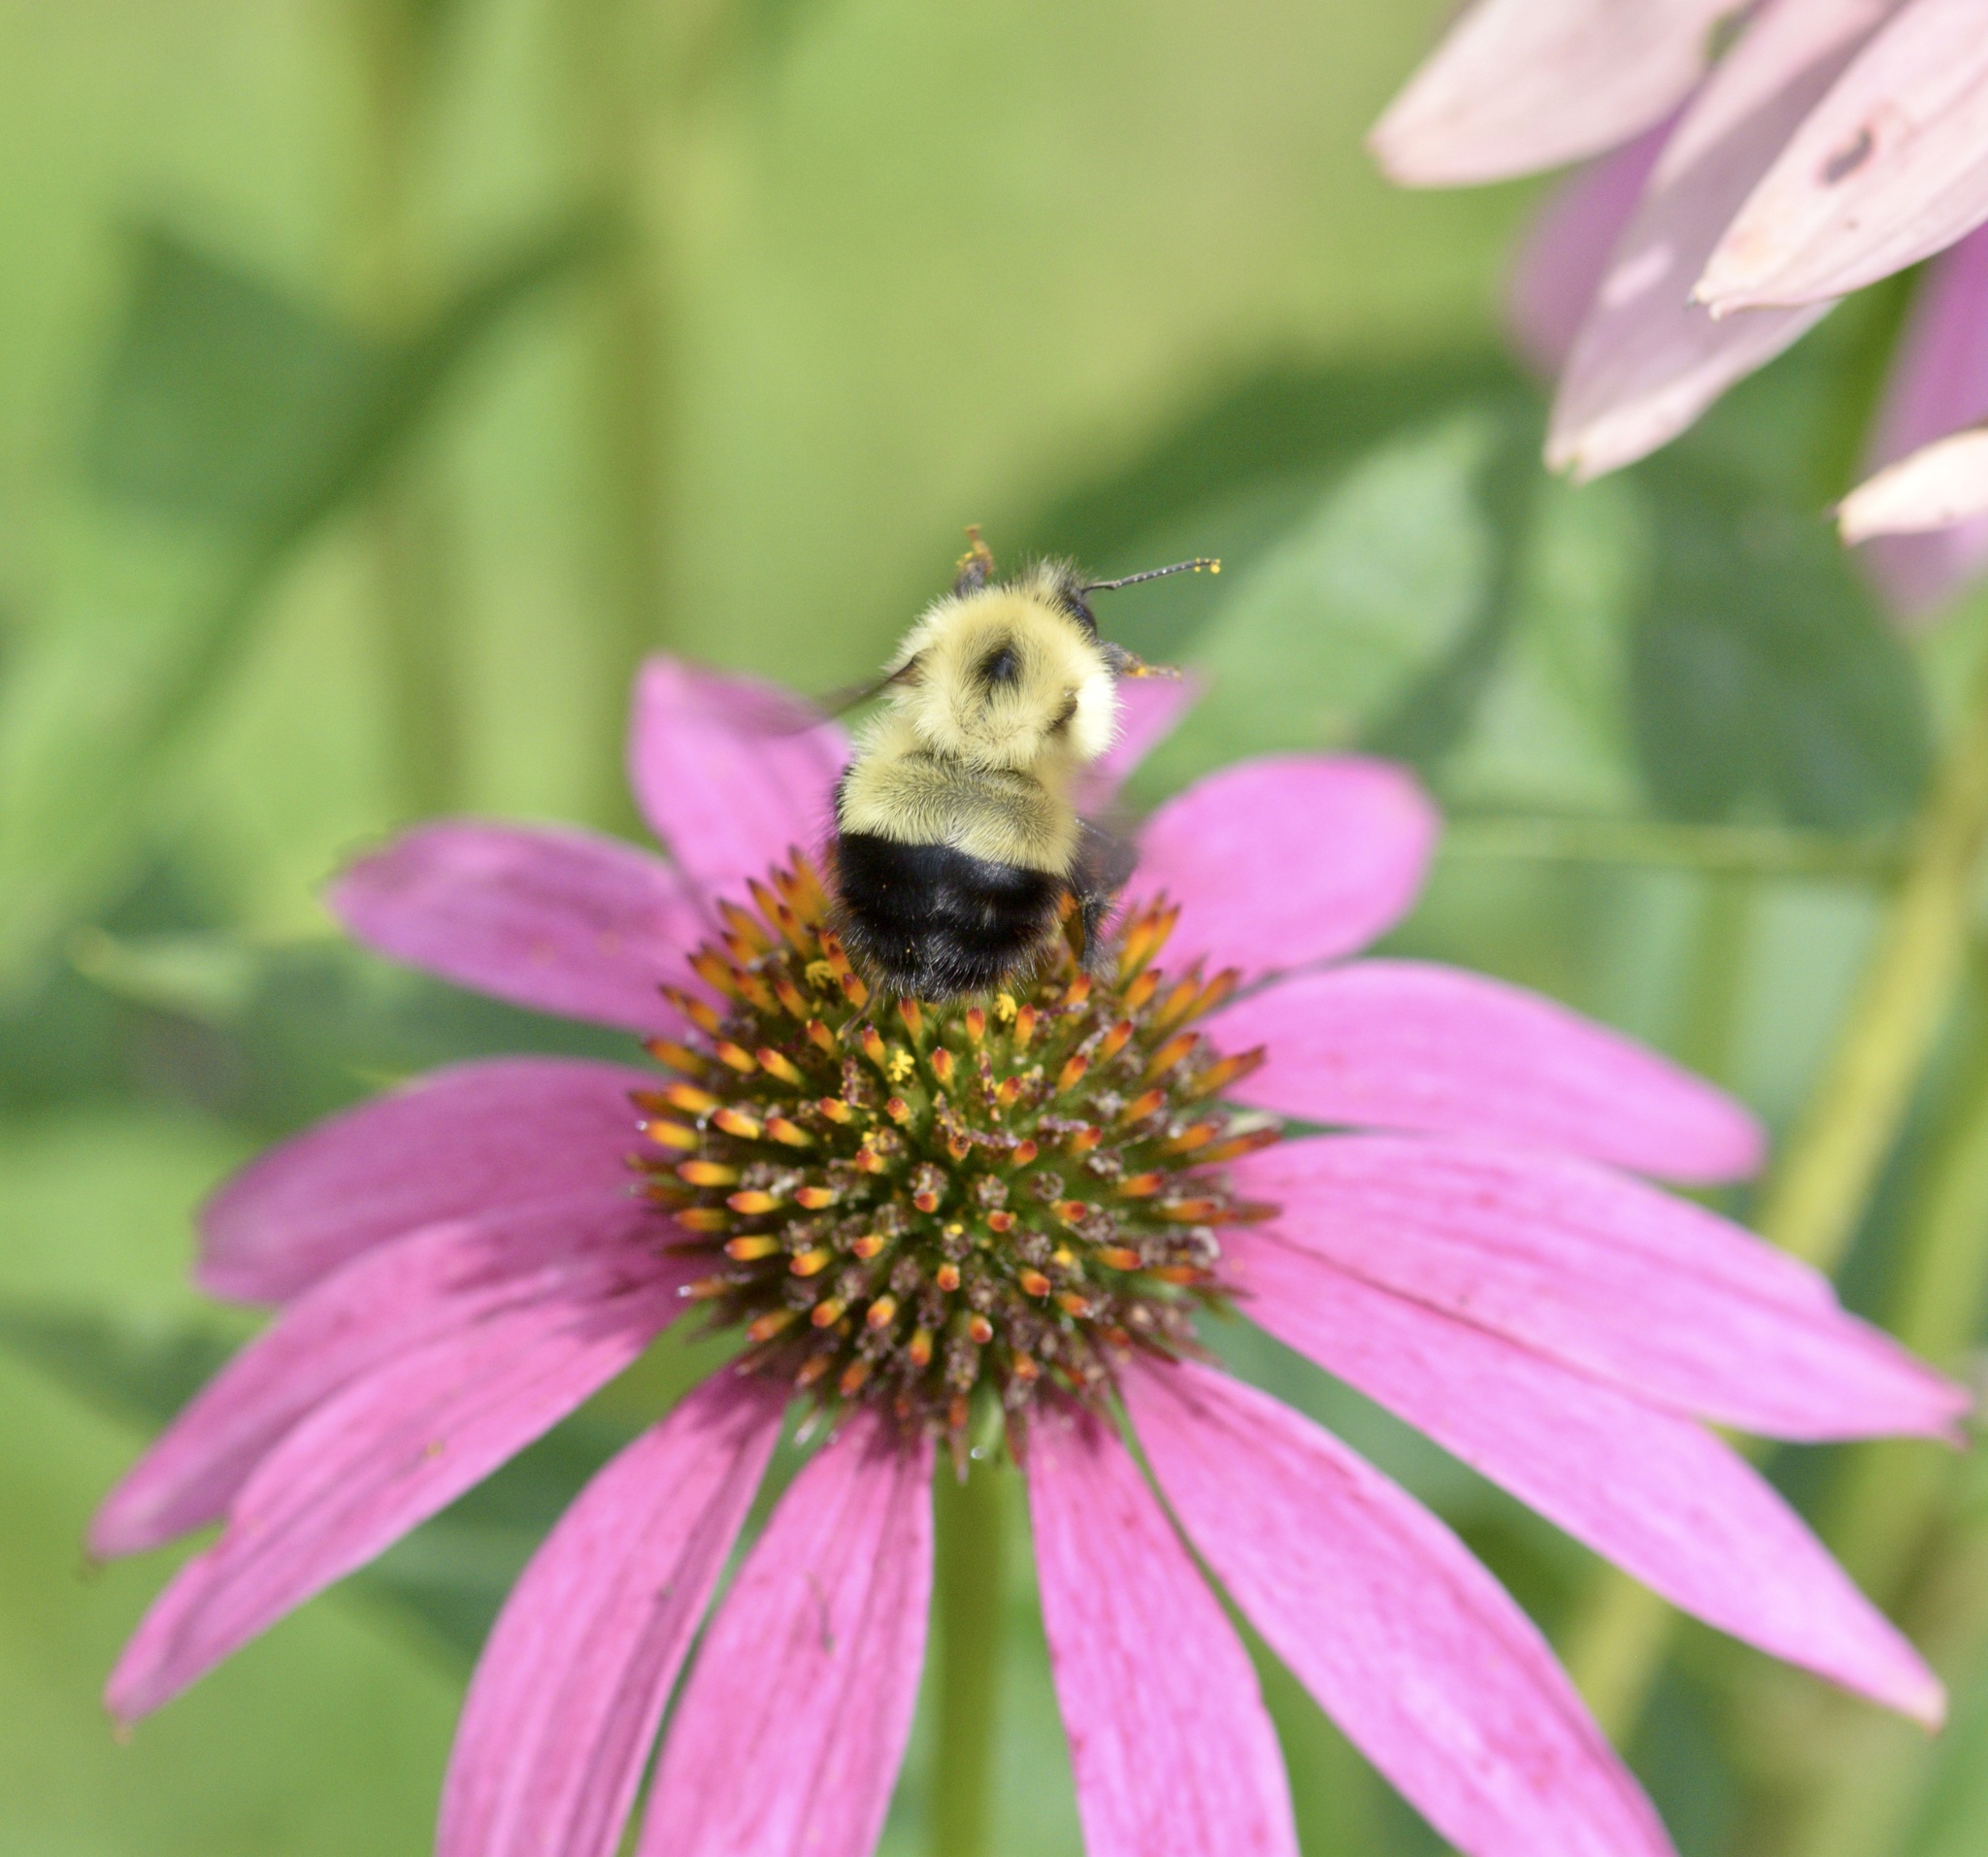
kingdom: Animalia
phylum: Arthropoda
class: Insecta
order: Hymenoptera
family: Apidae
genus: Pyrobombus
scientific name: Pyrobombus
